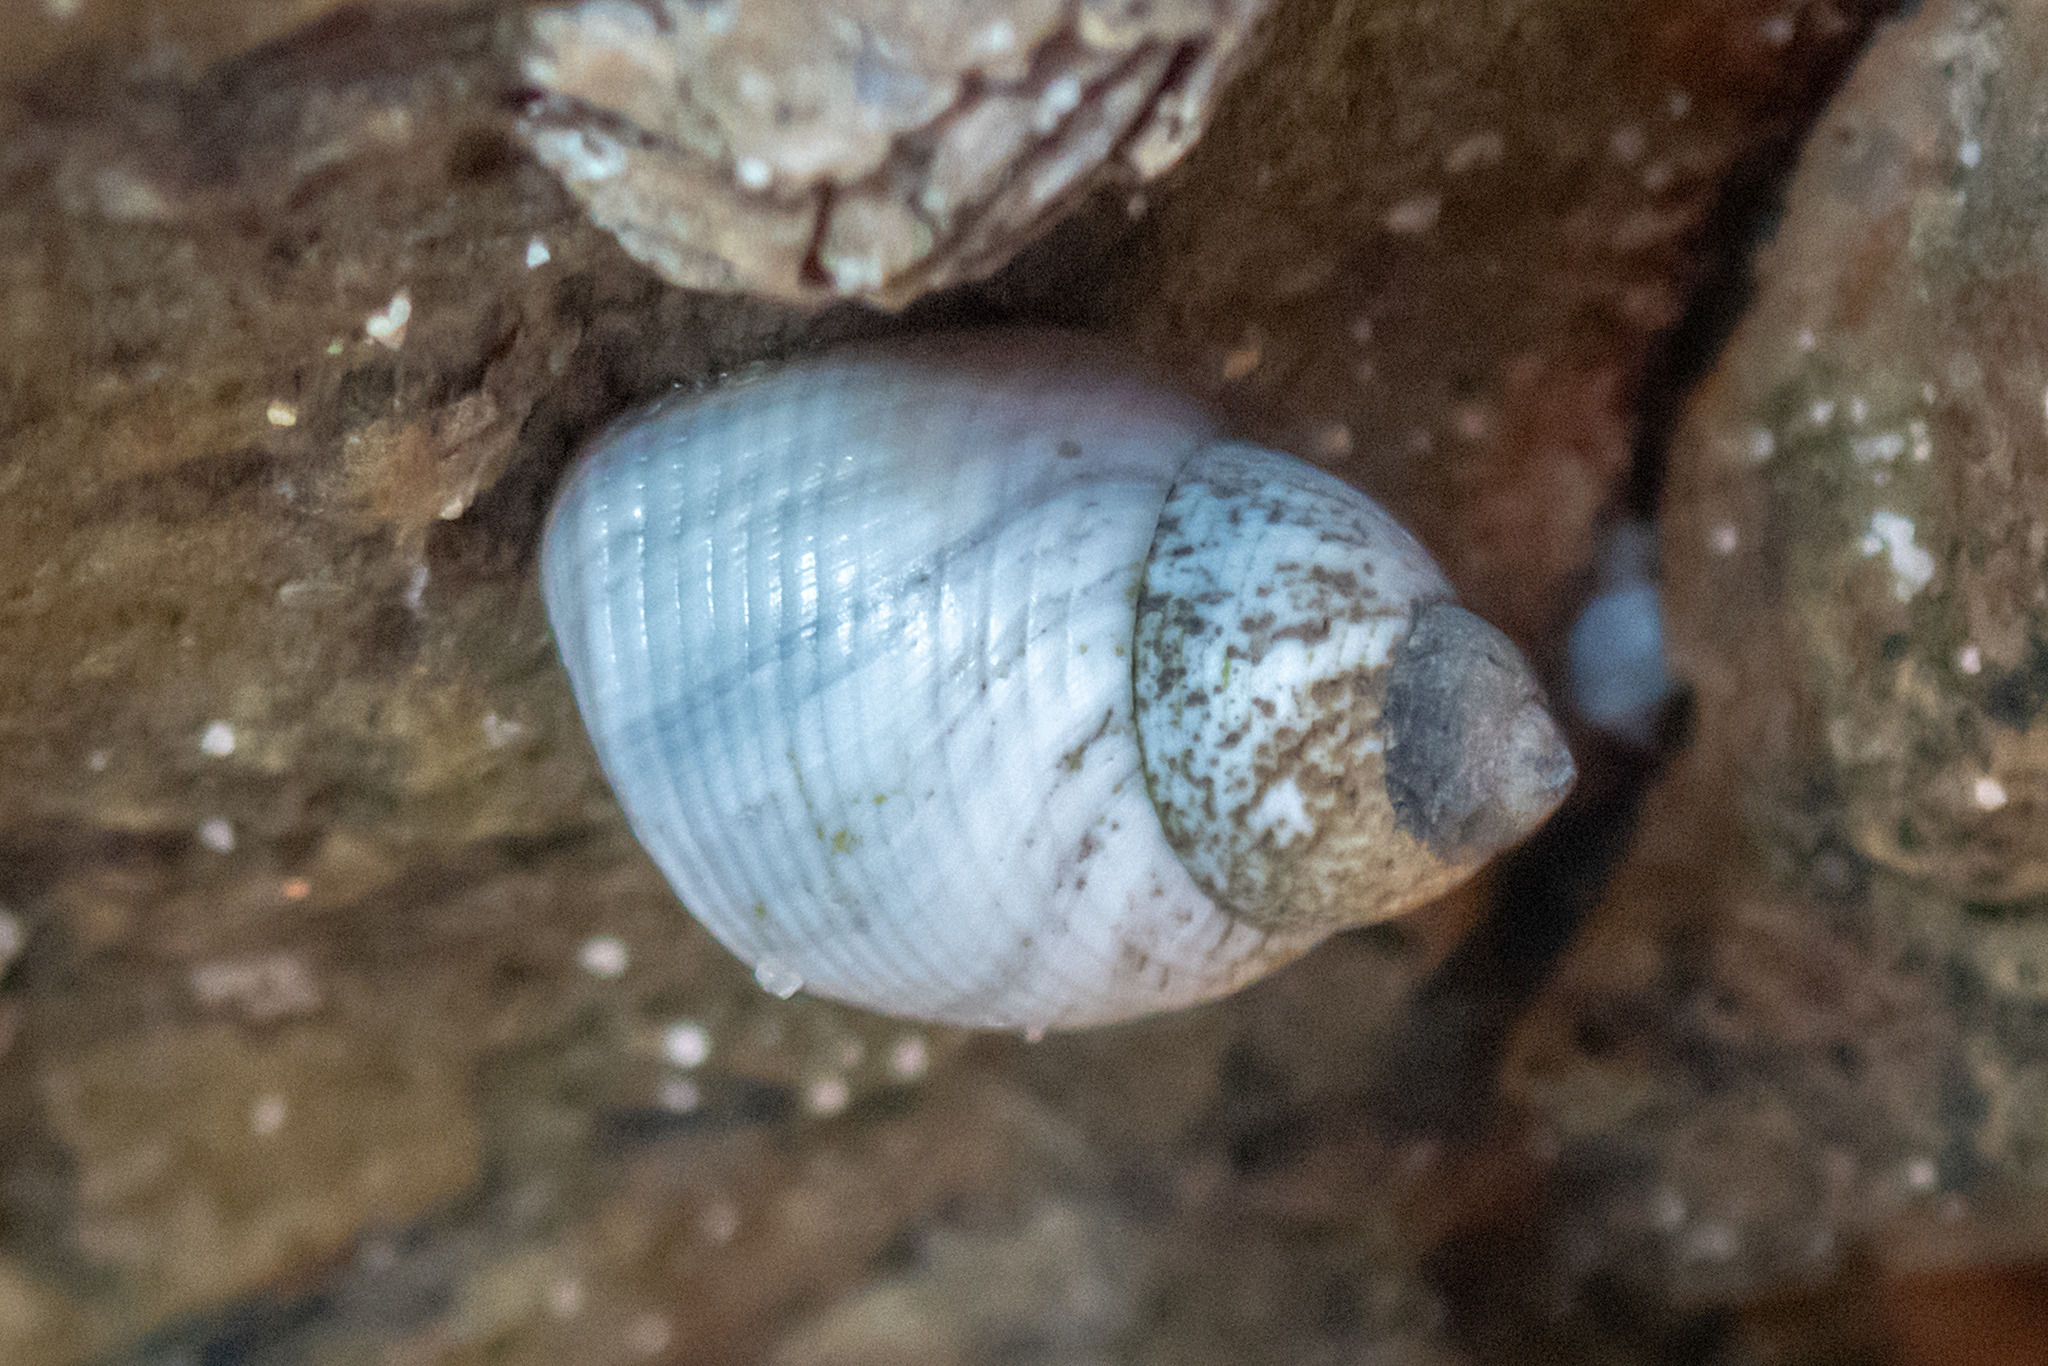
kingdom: Animalia
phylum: Mollusca
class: Gastropoda
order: Littorinimorpha
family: Littorinidae
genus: Austrolittorina
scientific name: Austrolittorina unifasciata
